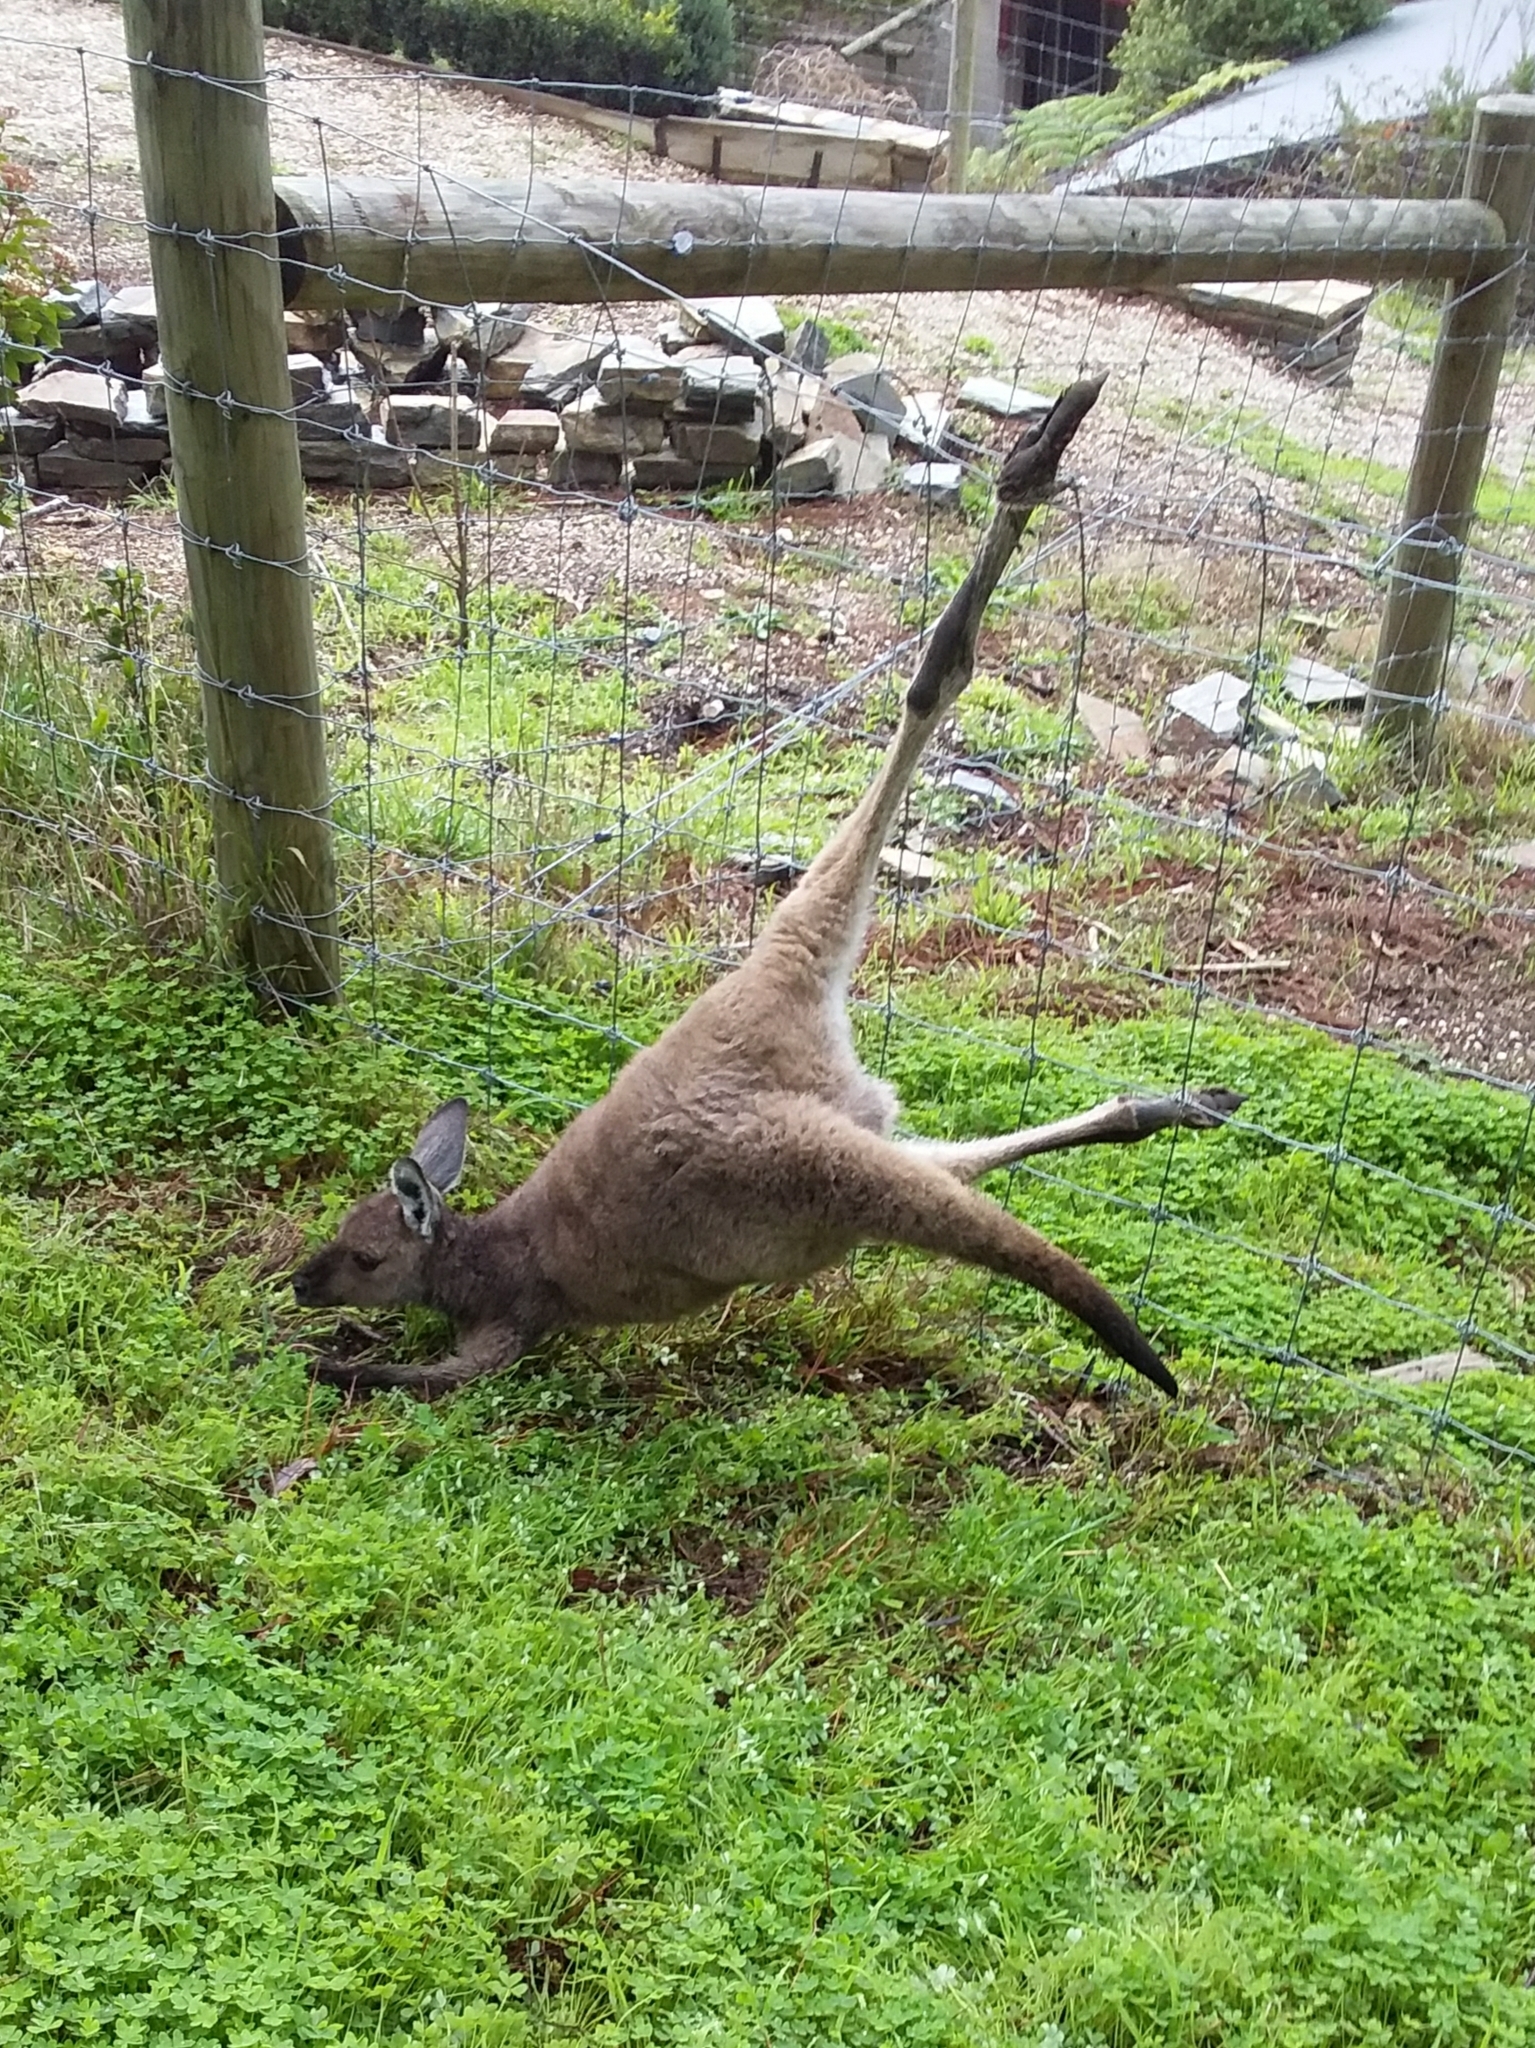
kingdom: Animalia
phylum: Chordata
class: Mammalia
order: Diprotodontia
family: Macropodidae
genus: Macropus
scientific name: Macropus fuliginosus
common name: Western grey kangaroo
